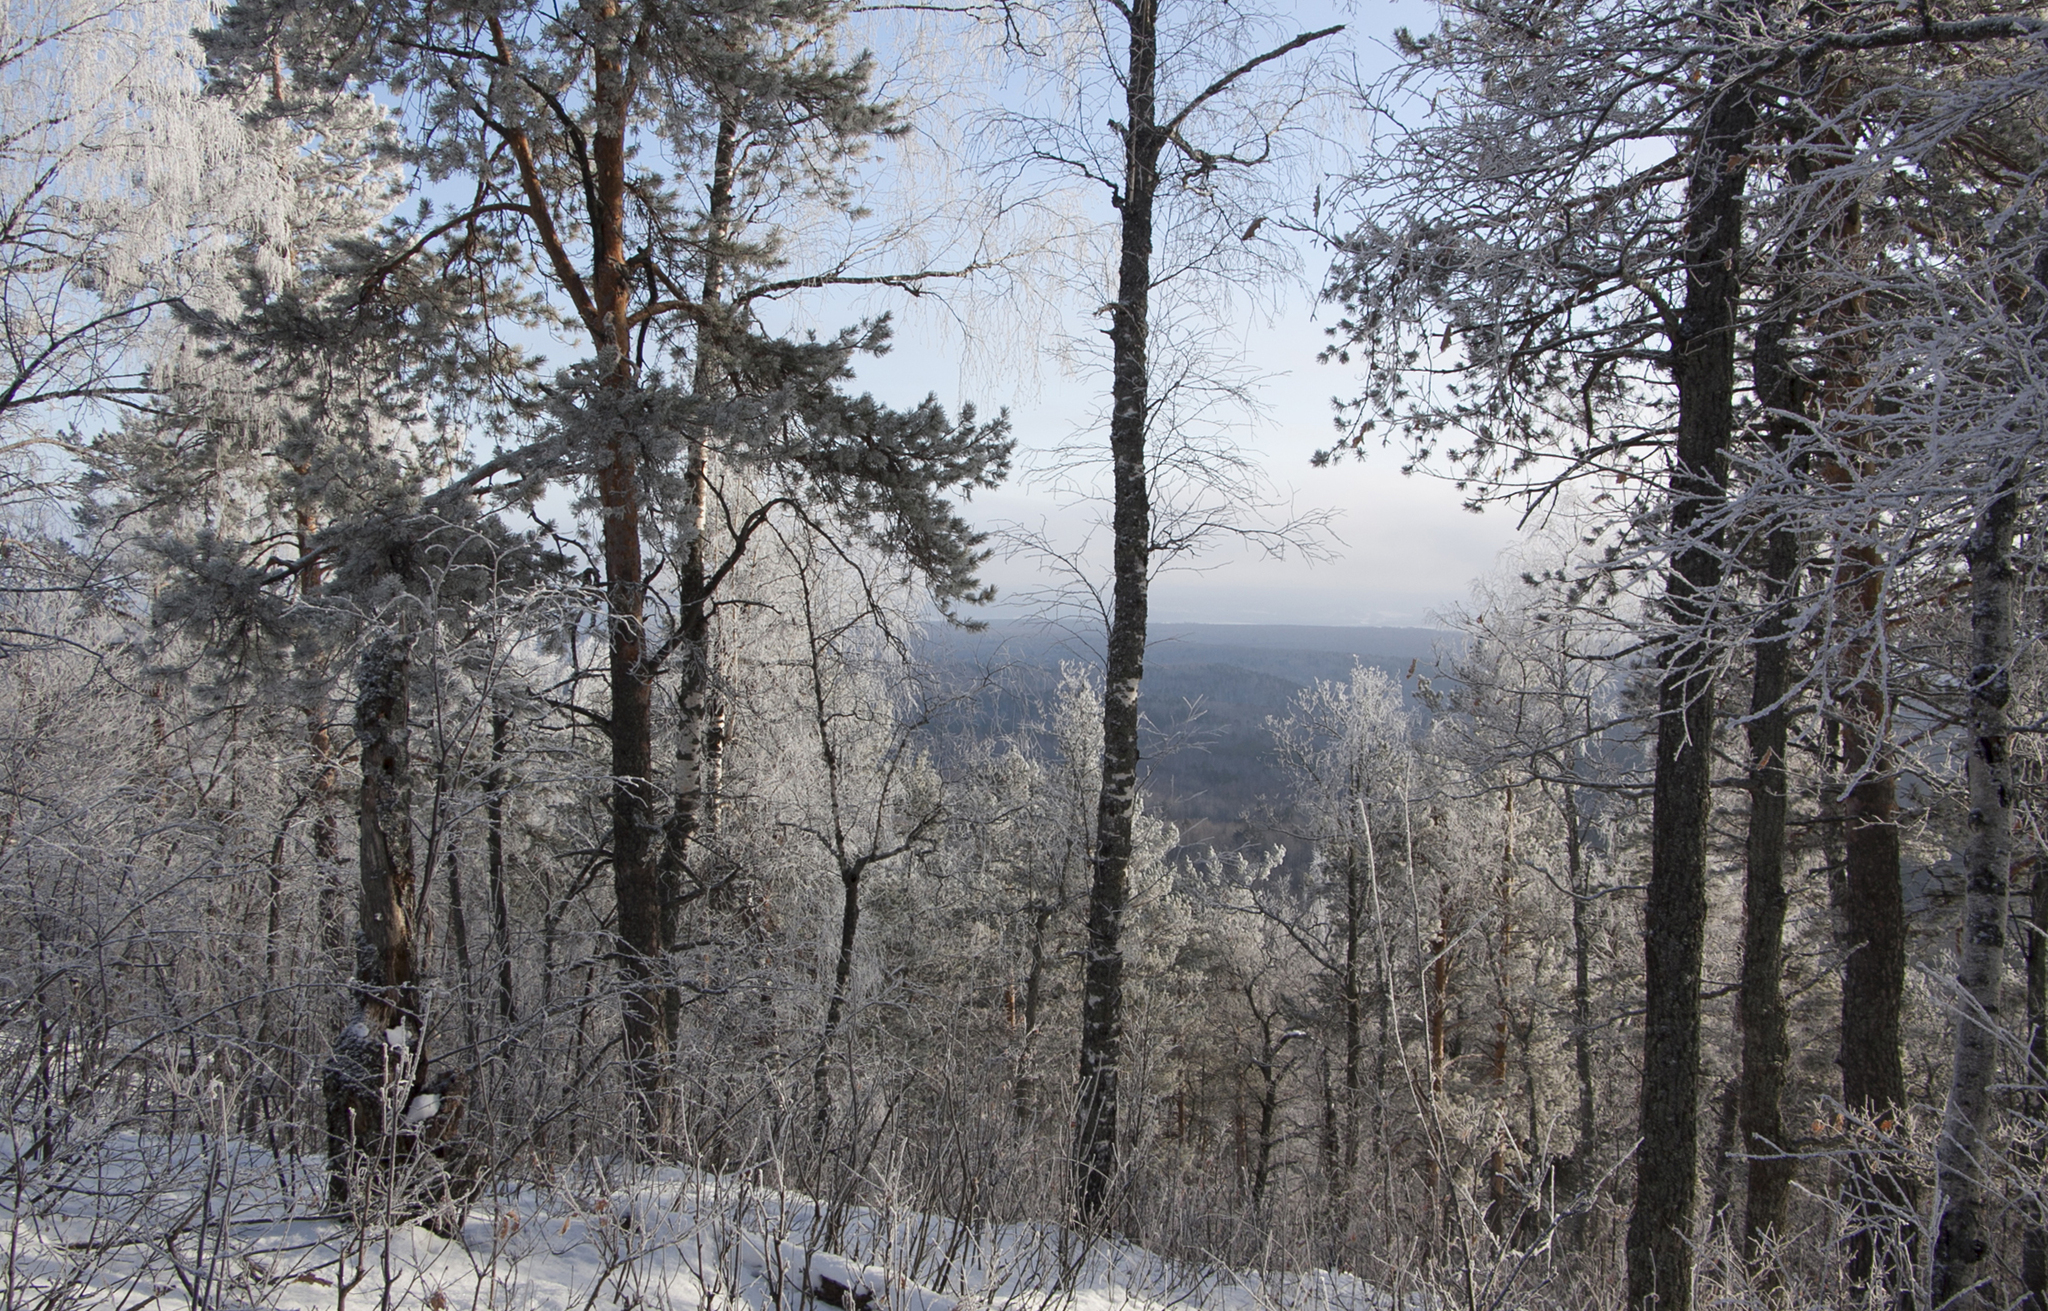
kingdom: Plantae
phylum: Tracheophyta
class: Pinopsida
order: Pinales
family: Pinaceae
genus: Pinus
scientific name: Pinus sylvestris
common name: Scots pine
